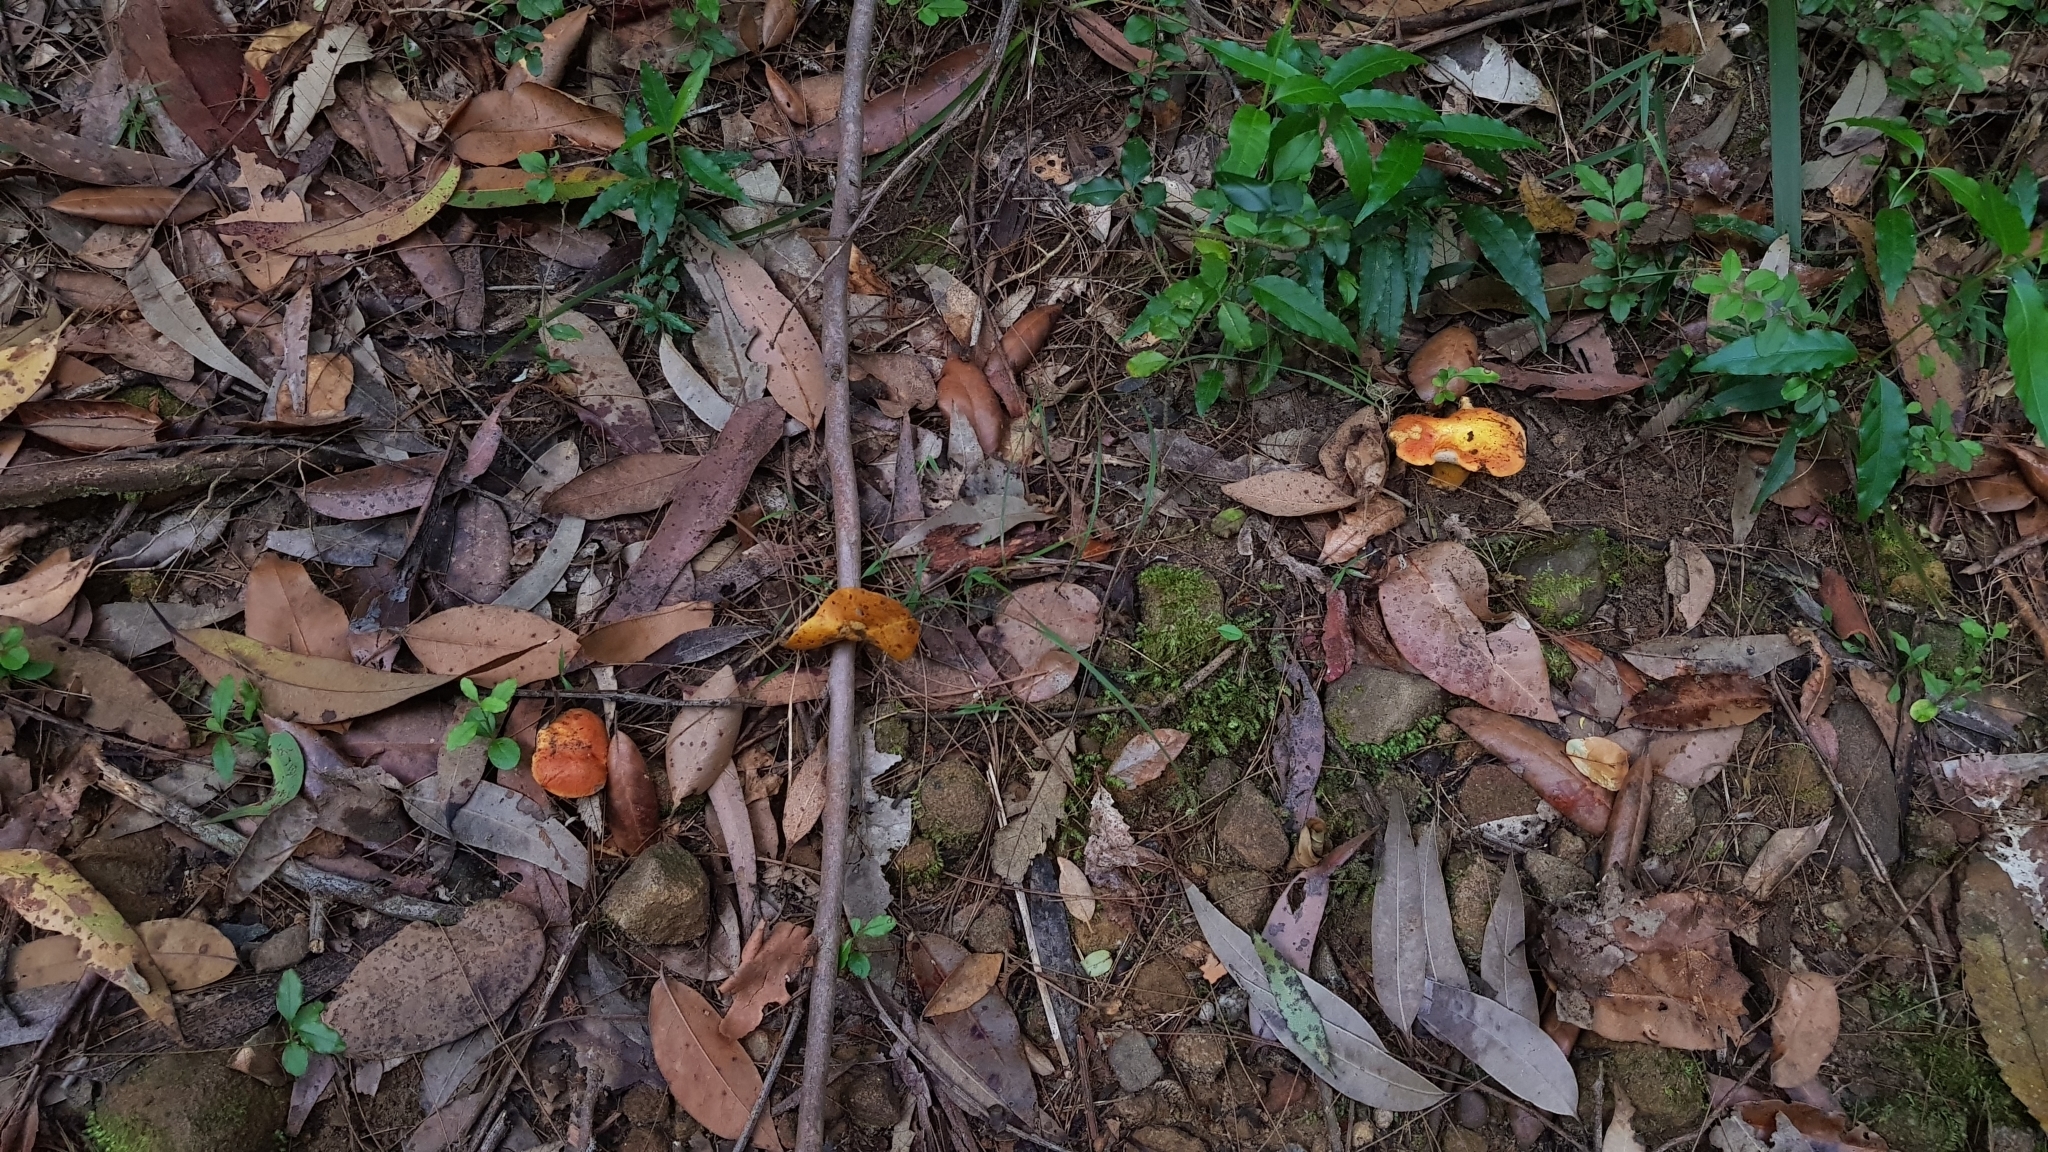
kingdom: Fungi
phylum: Basidiomycota
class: Agaricomycetes
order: Boletales
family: Boletaceae
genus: Tylopilus
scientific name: Tylopilus balloui
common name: Burnt-orange bolete
